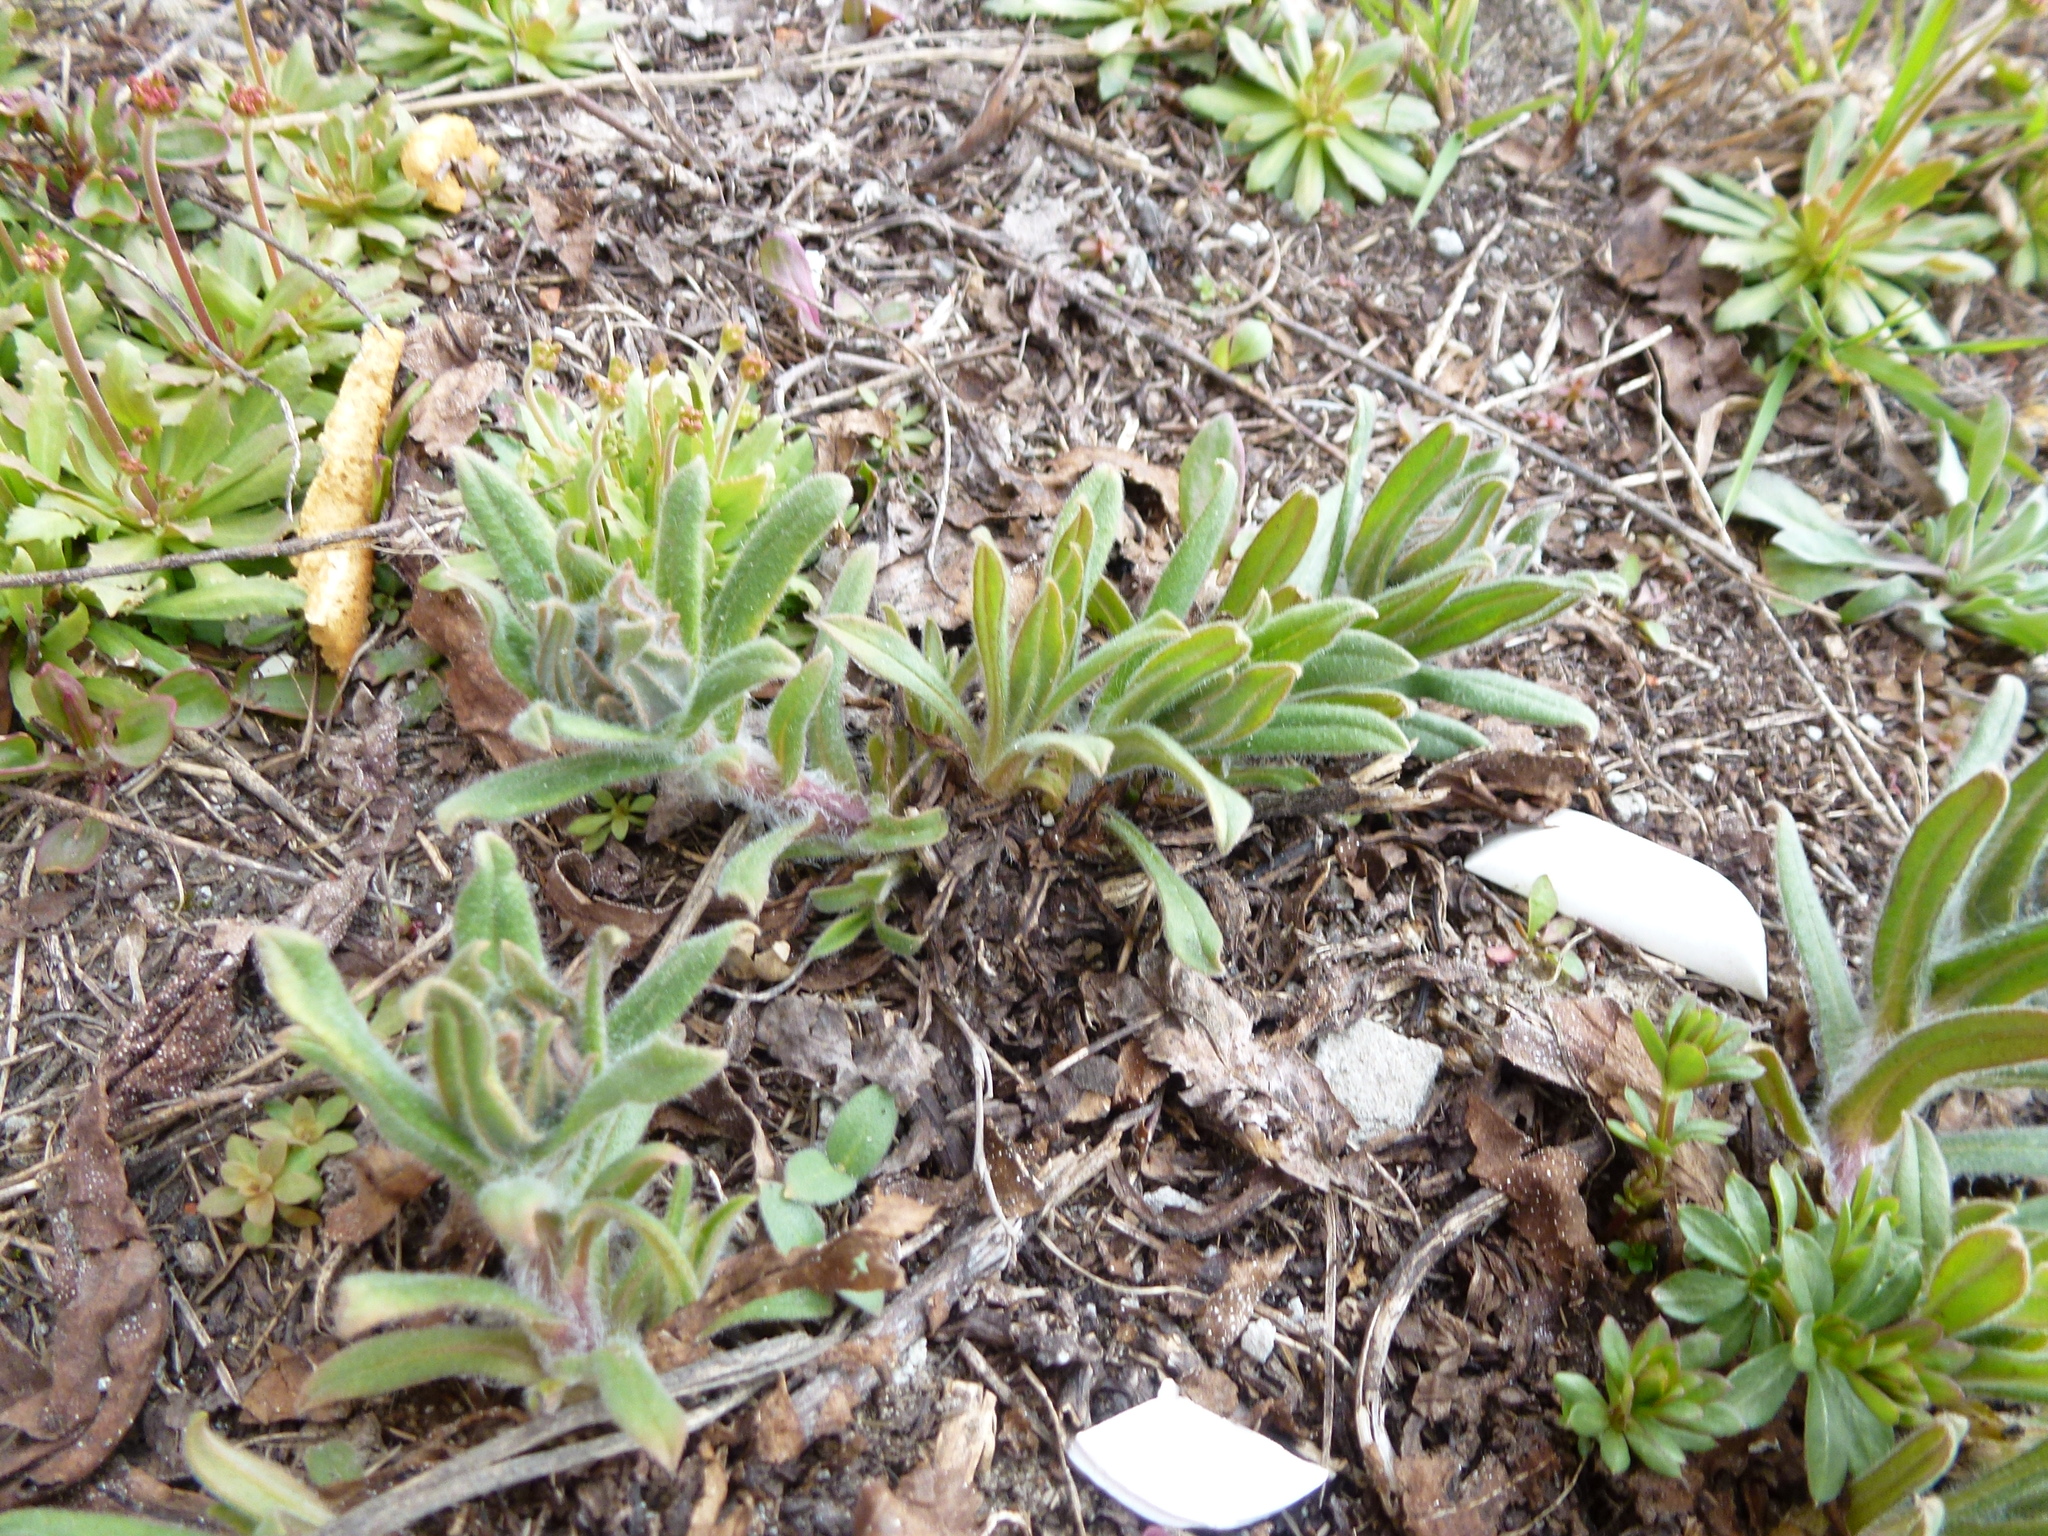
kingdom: Plantae
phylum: Tracheophyta
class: Magnoliopsida
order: Boraginales
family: Boraginaceae
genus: Nonea
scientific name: Nonea pulla
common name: Brown nonea
